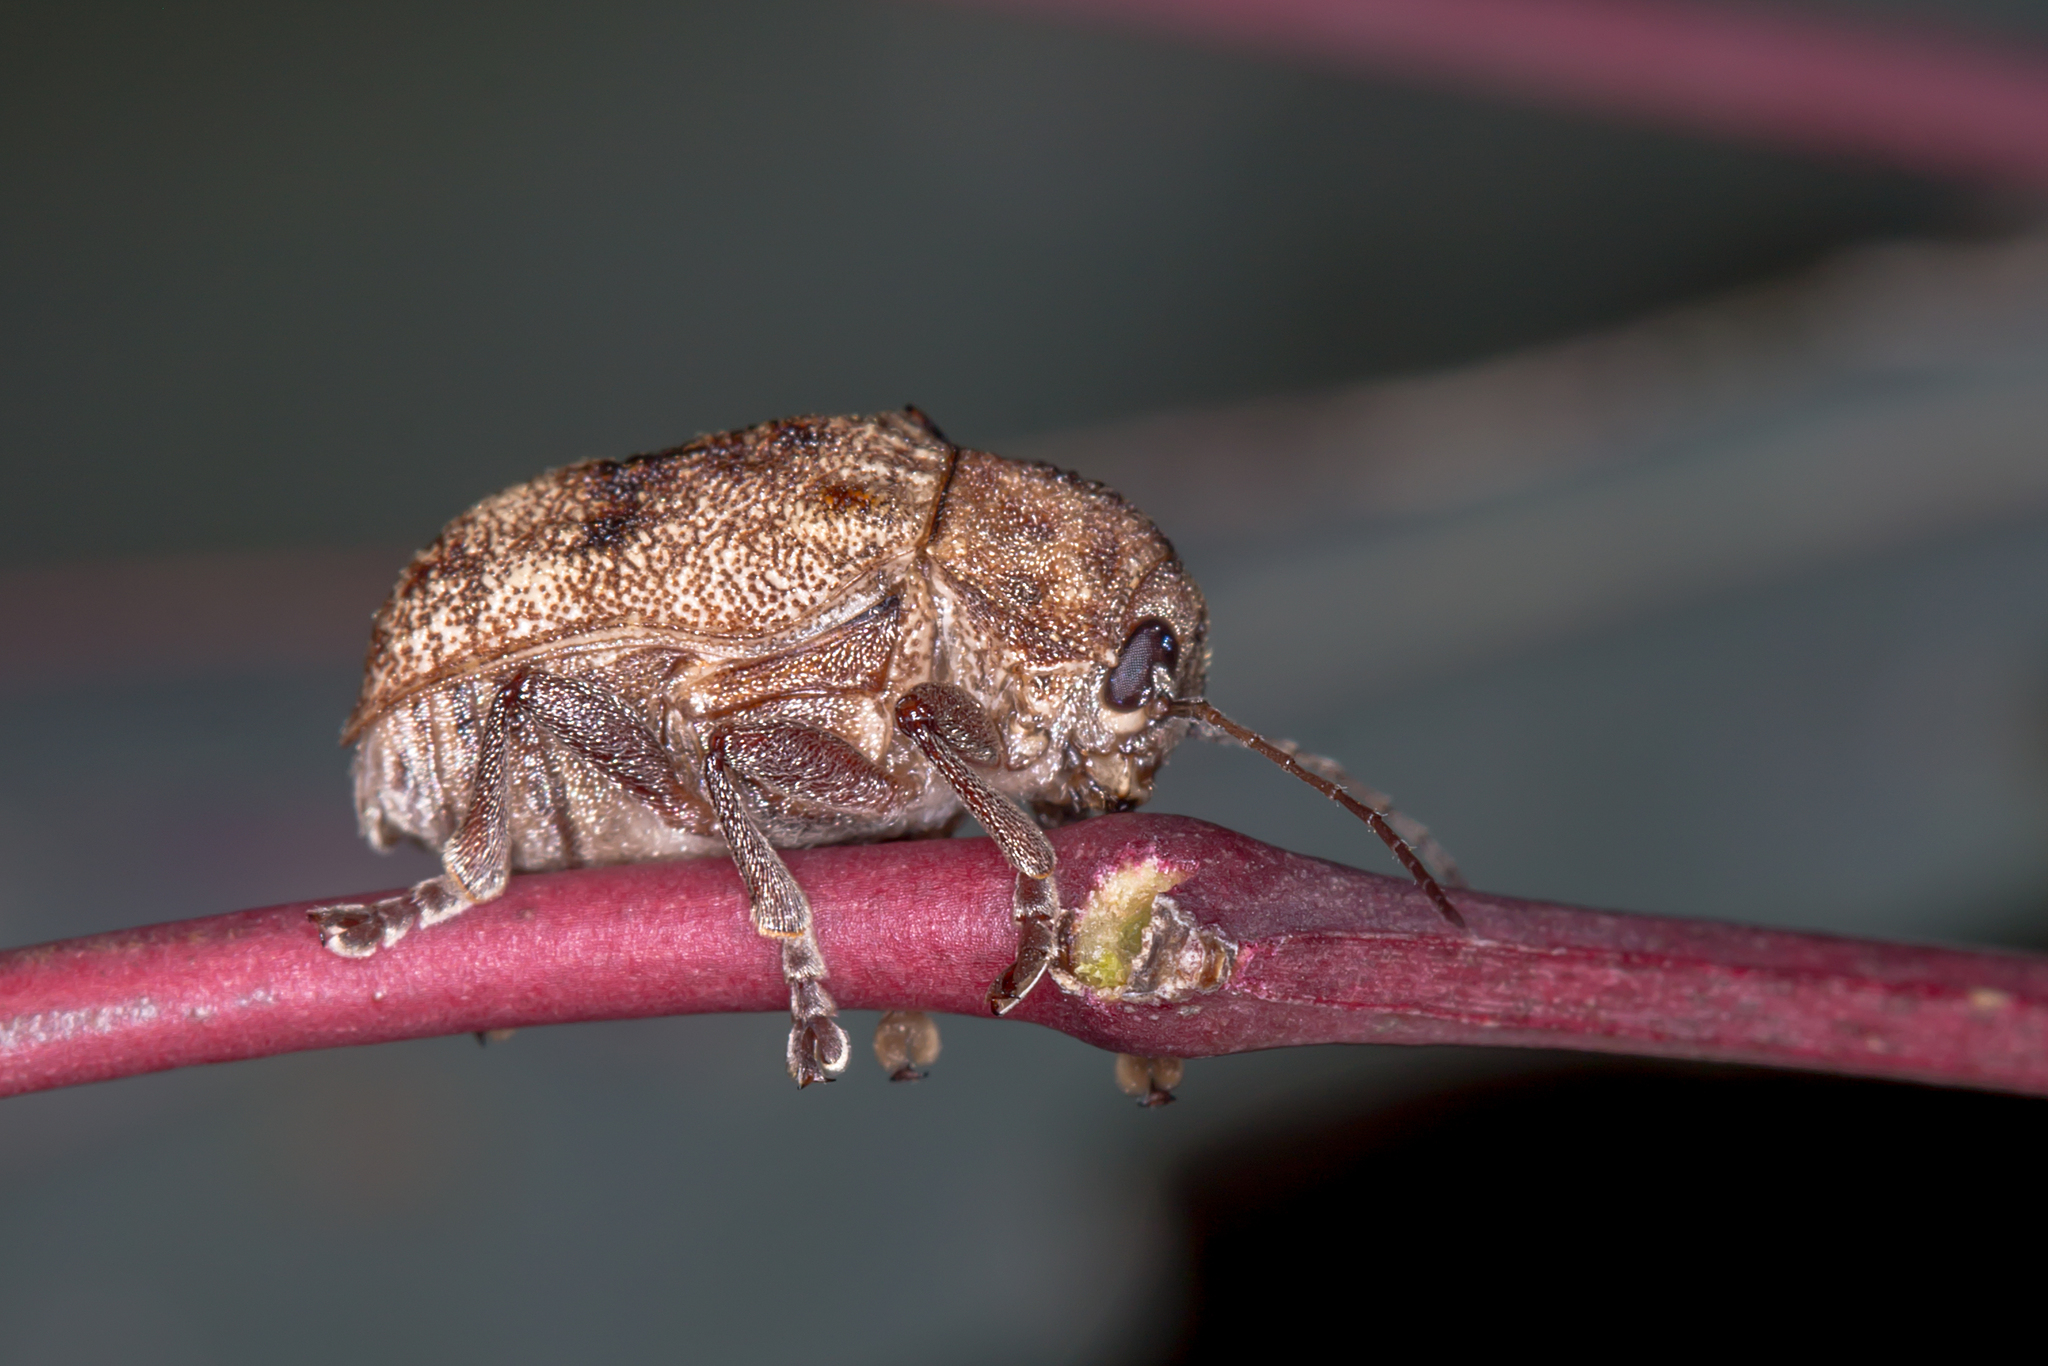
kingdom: Animalia
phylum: Arthropoda
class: Insecta
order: Coleoptera
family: Chrysomelidae
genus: Cadmus
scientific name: Cadmus
